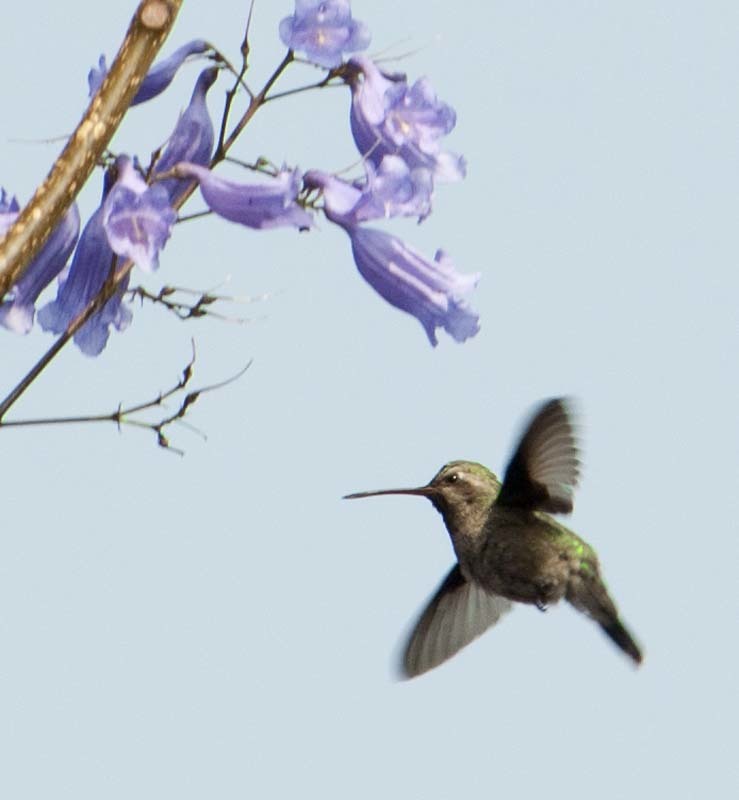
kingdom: Animalia
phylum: Chordata
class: Aves
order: Apodiformes
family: Trochilidae
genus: Cynanthus
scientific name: Cynanthus latirostris
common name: Broad-billed hummingbird
